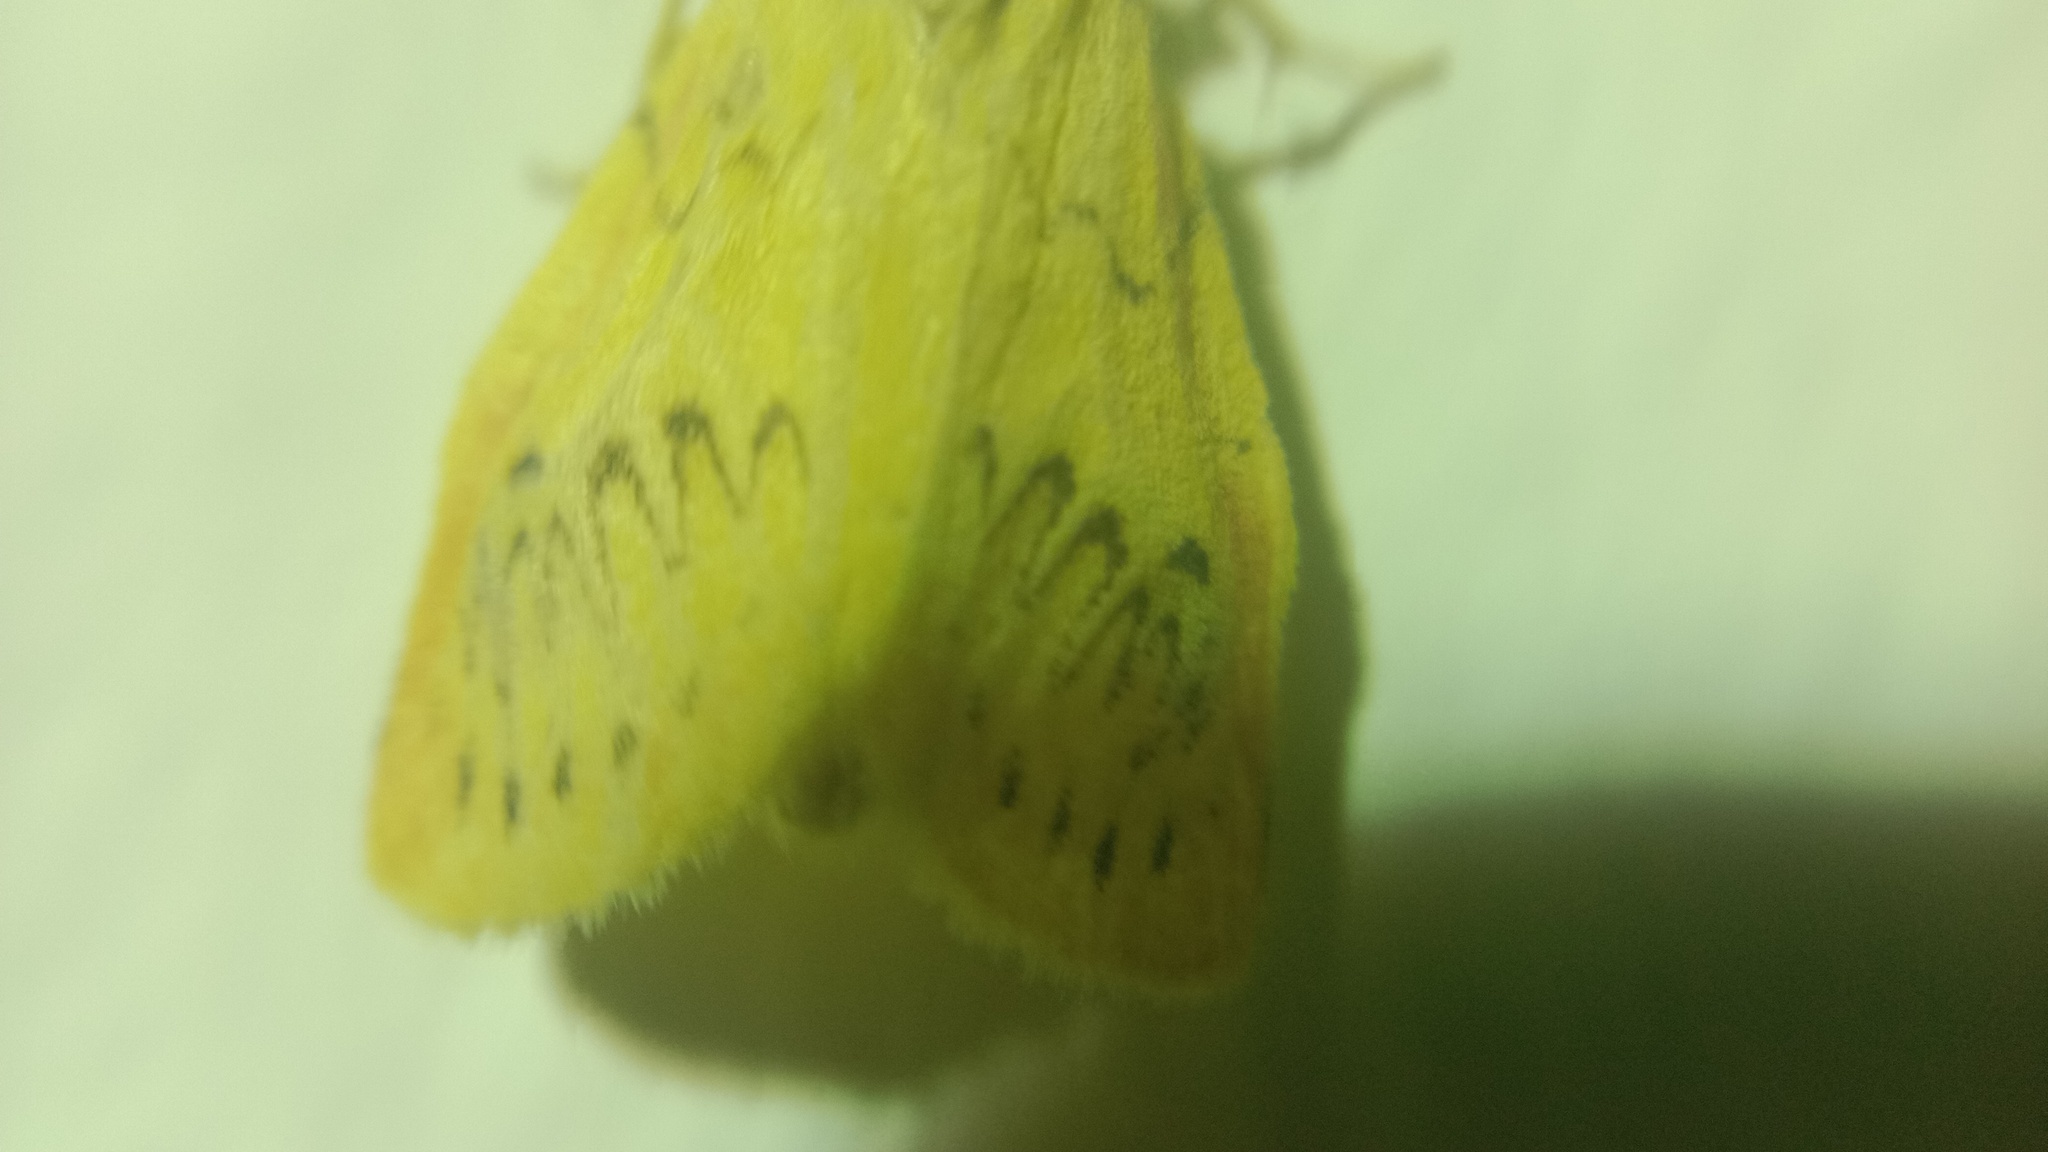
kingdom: Animalia
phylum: Arthropoda
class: Insecta
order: Lepidoptera
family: Erebidae
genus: Miltochrista
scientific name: Miltochrista miniata
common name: Rosy footman
